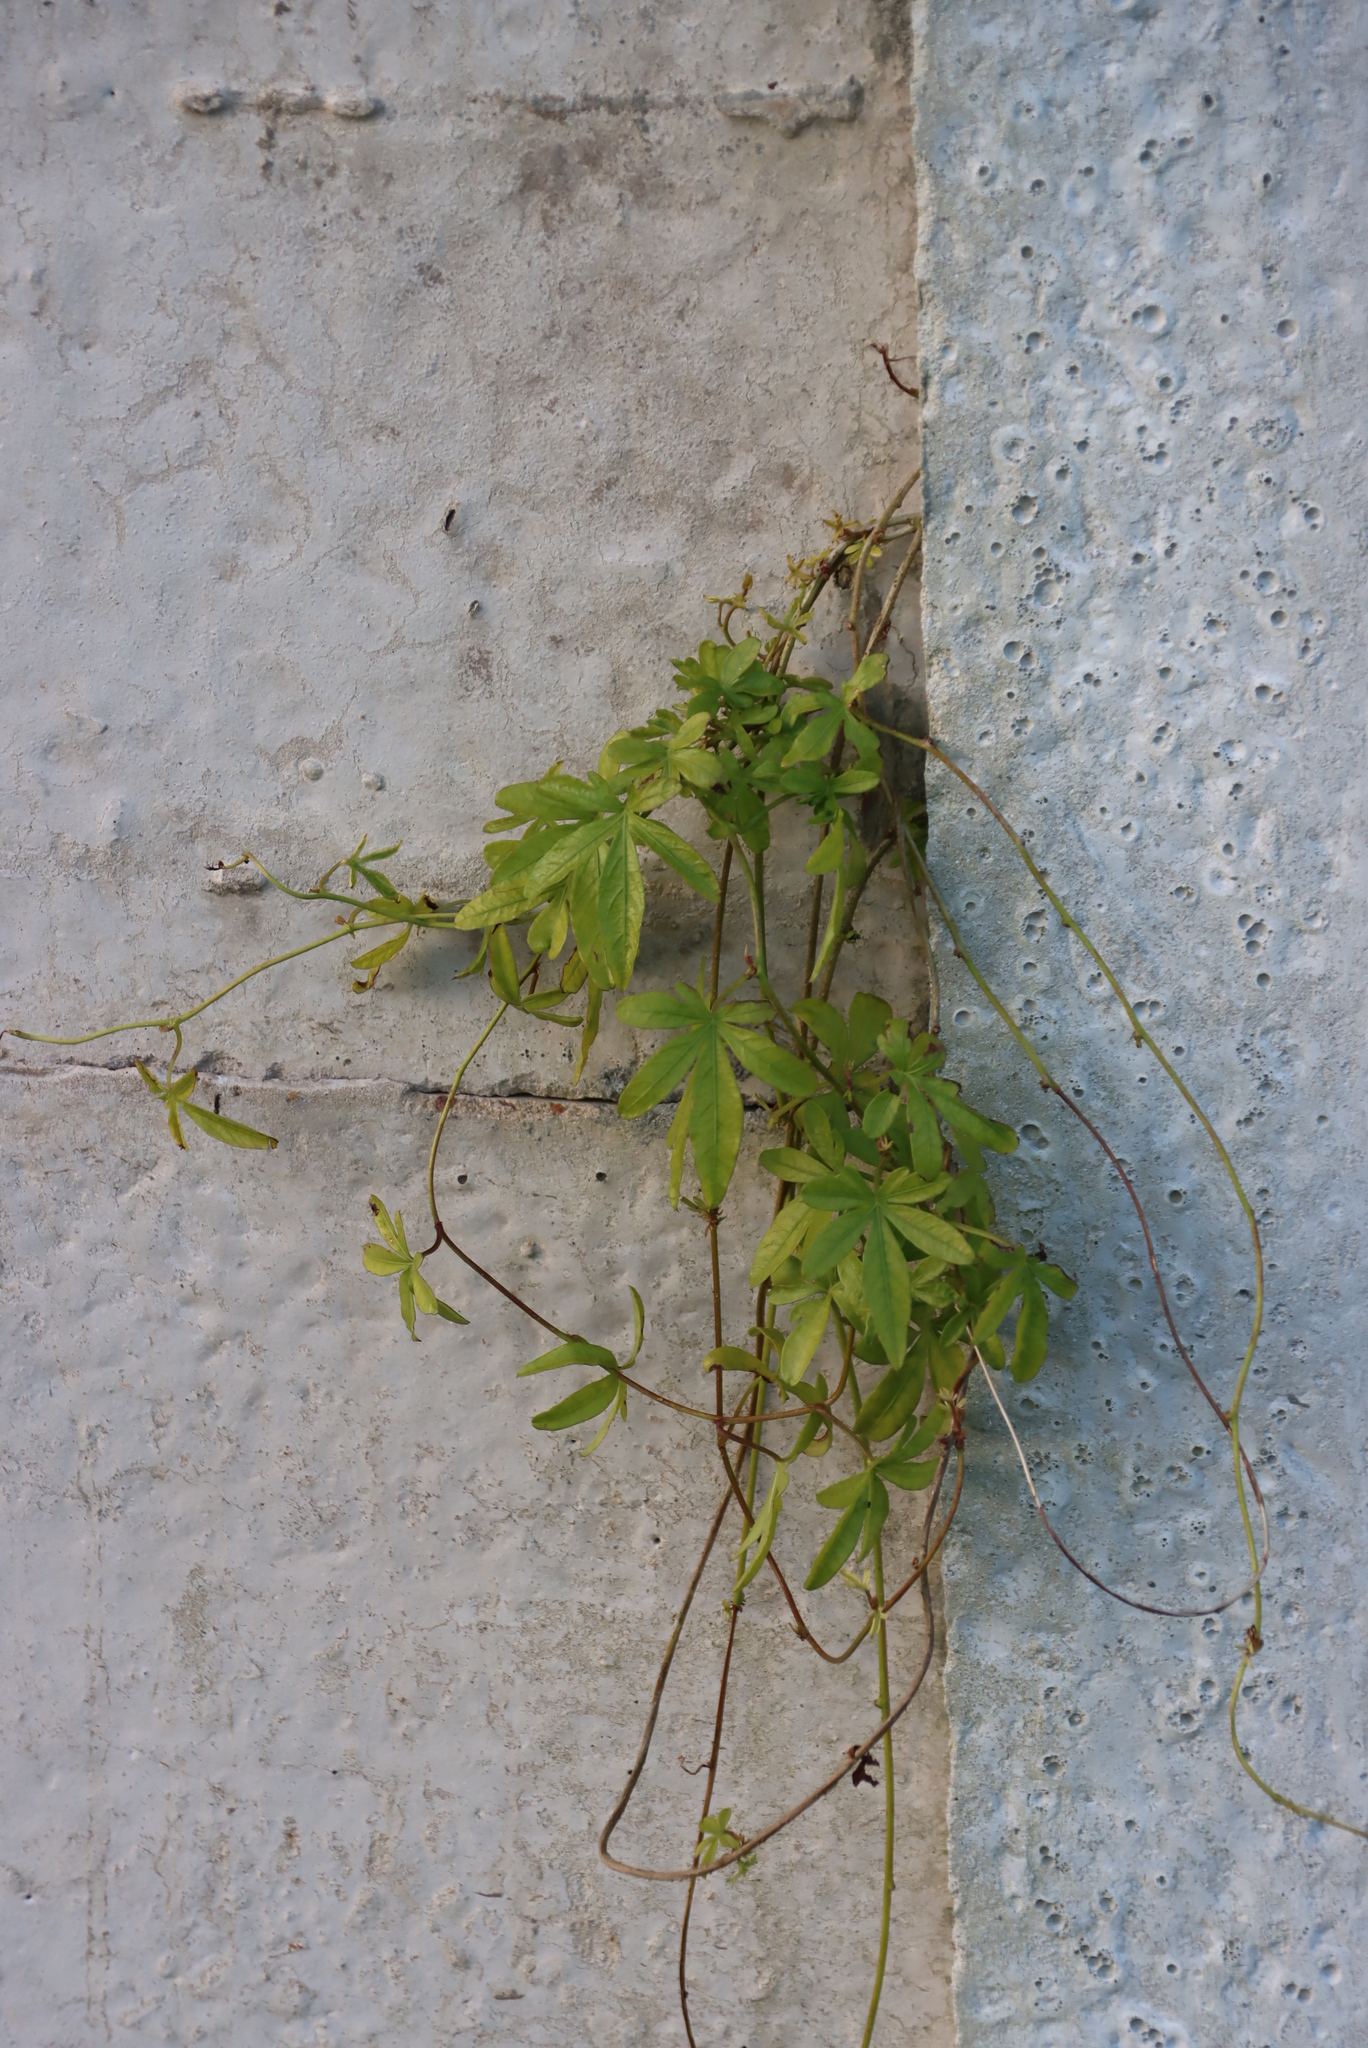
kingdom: Plantae
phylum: Tracheophyta
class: Magnoliopsida
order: Solanales
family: Convolvulaceae
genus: Ipomoea
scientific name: Ipomoea cairica
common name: Mile a minute vine
